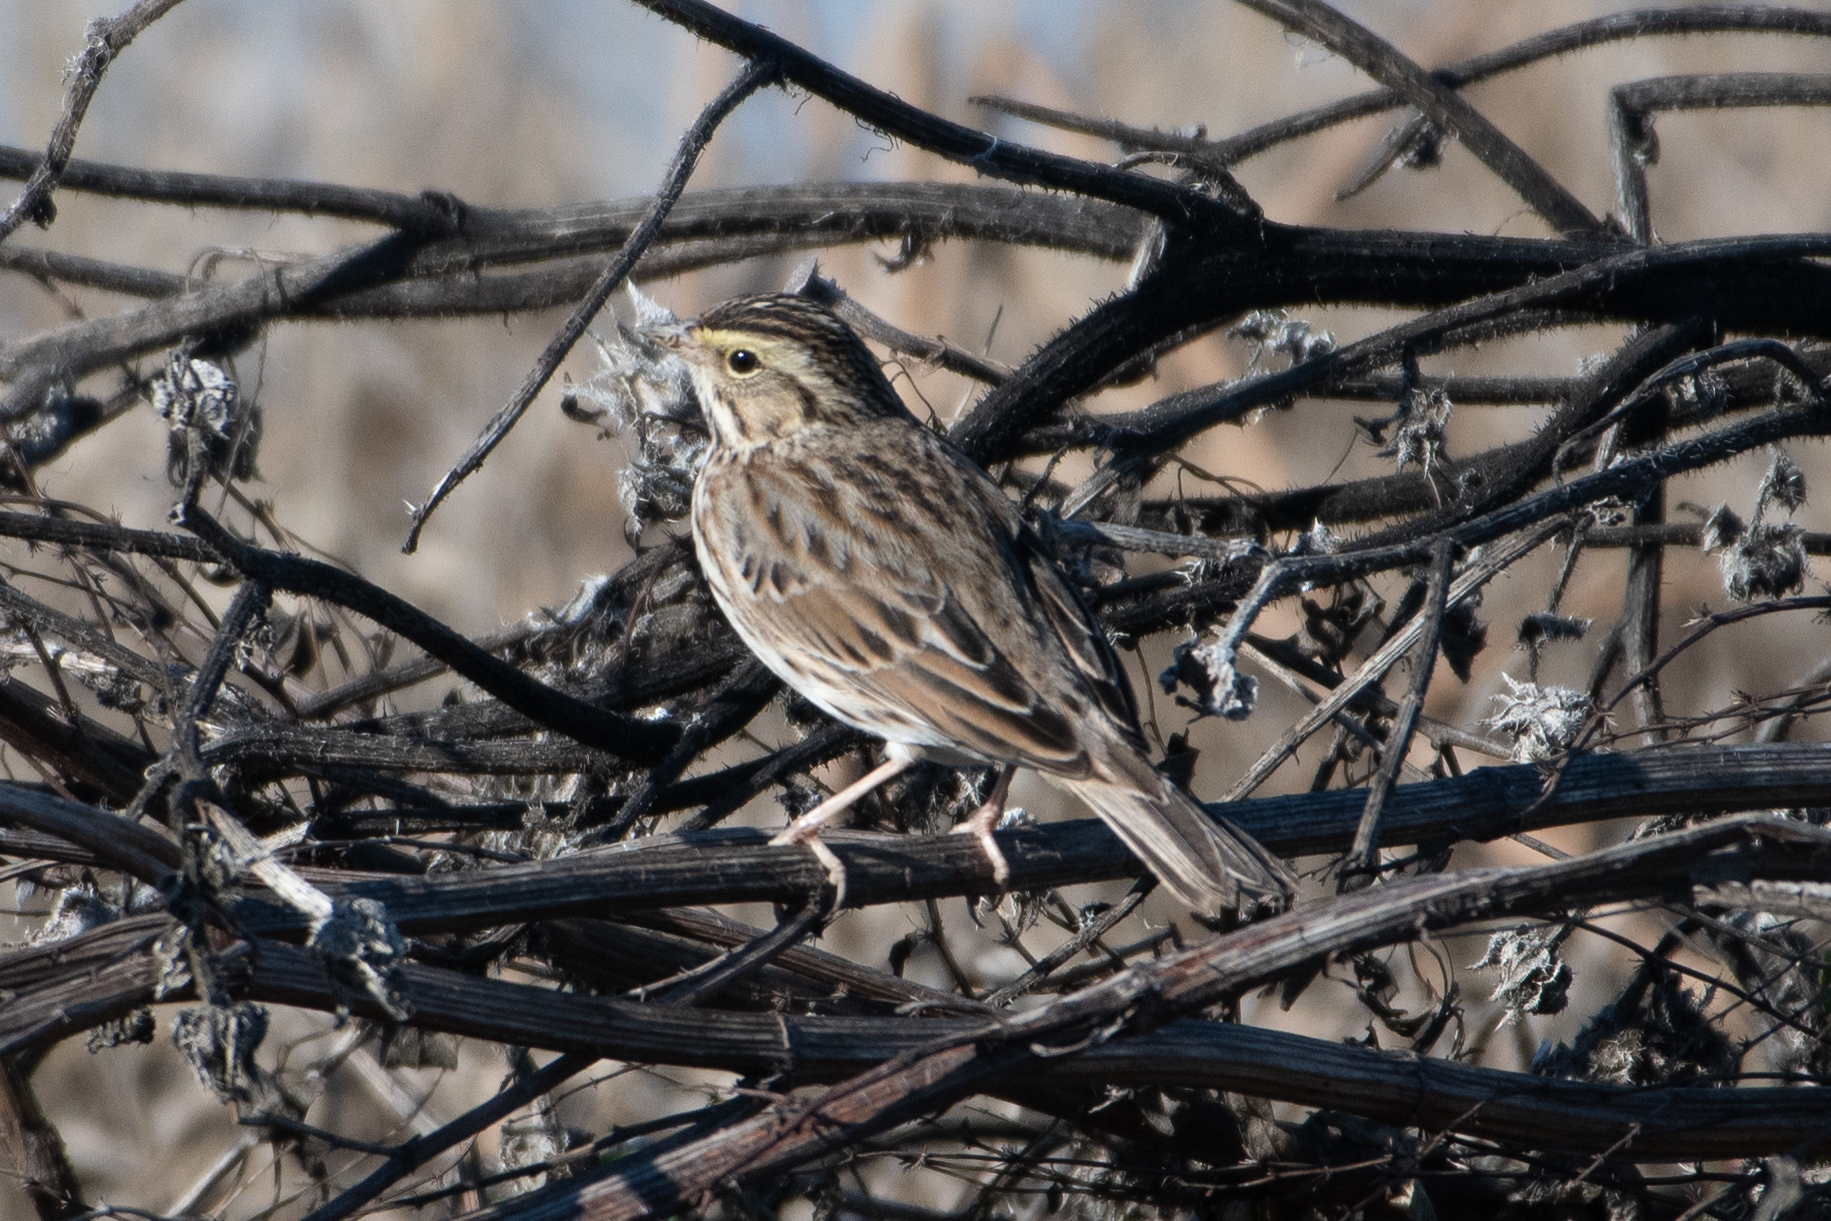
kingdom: Animalia
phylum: Chordata
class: Aves
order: Passeriformes
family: Passerellidae
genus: Passerculus
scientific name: Passerculus sandwichensis
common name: Savannah sparrow
